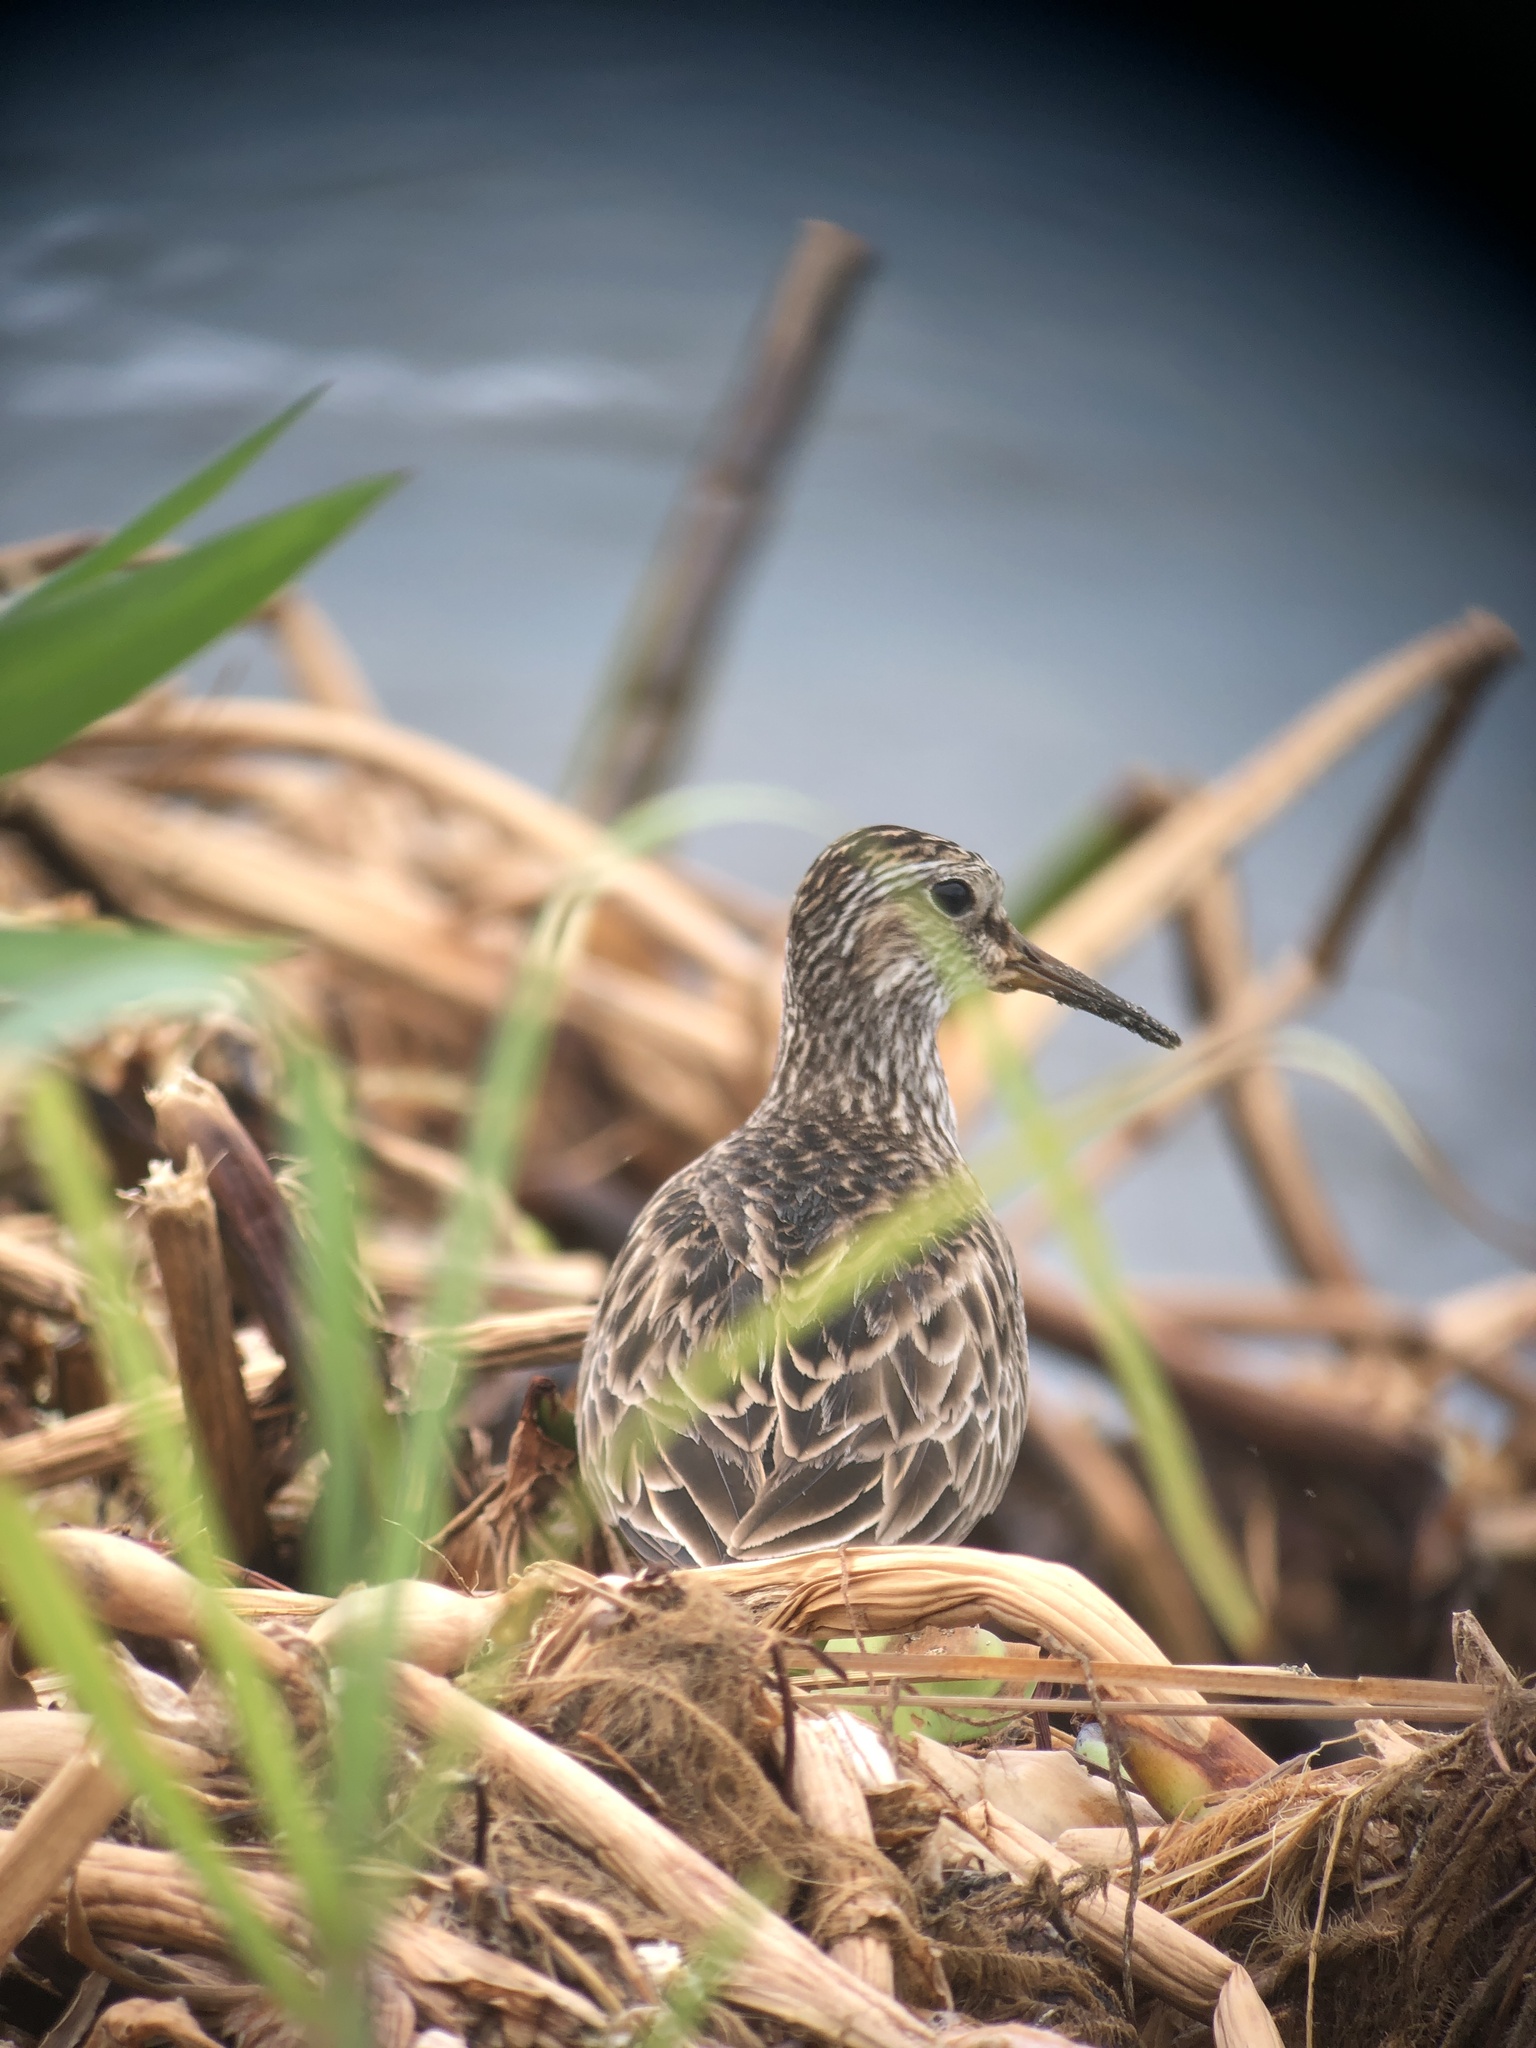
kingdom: Animalia
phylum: Chordata
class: Aves
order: Charadriiformes
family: Scolopacidae
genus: Calidris
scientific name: Calidris melanotos
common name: Pectoral sandpiper
